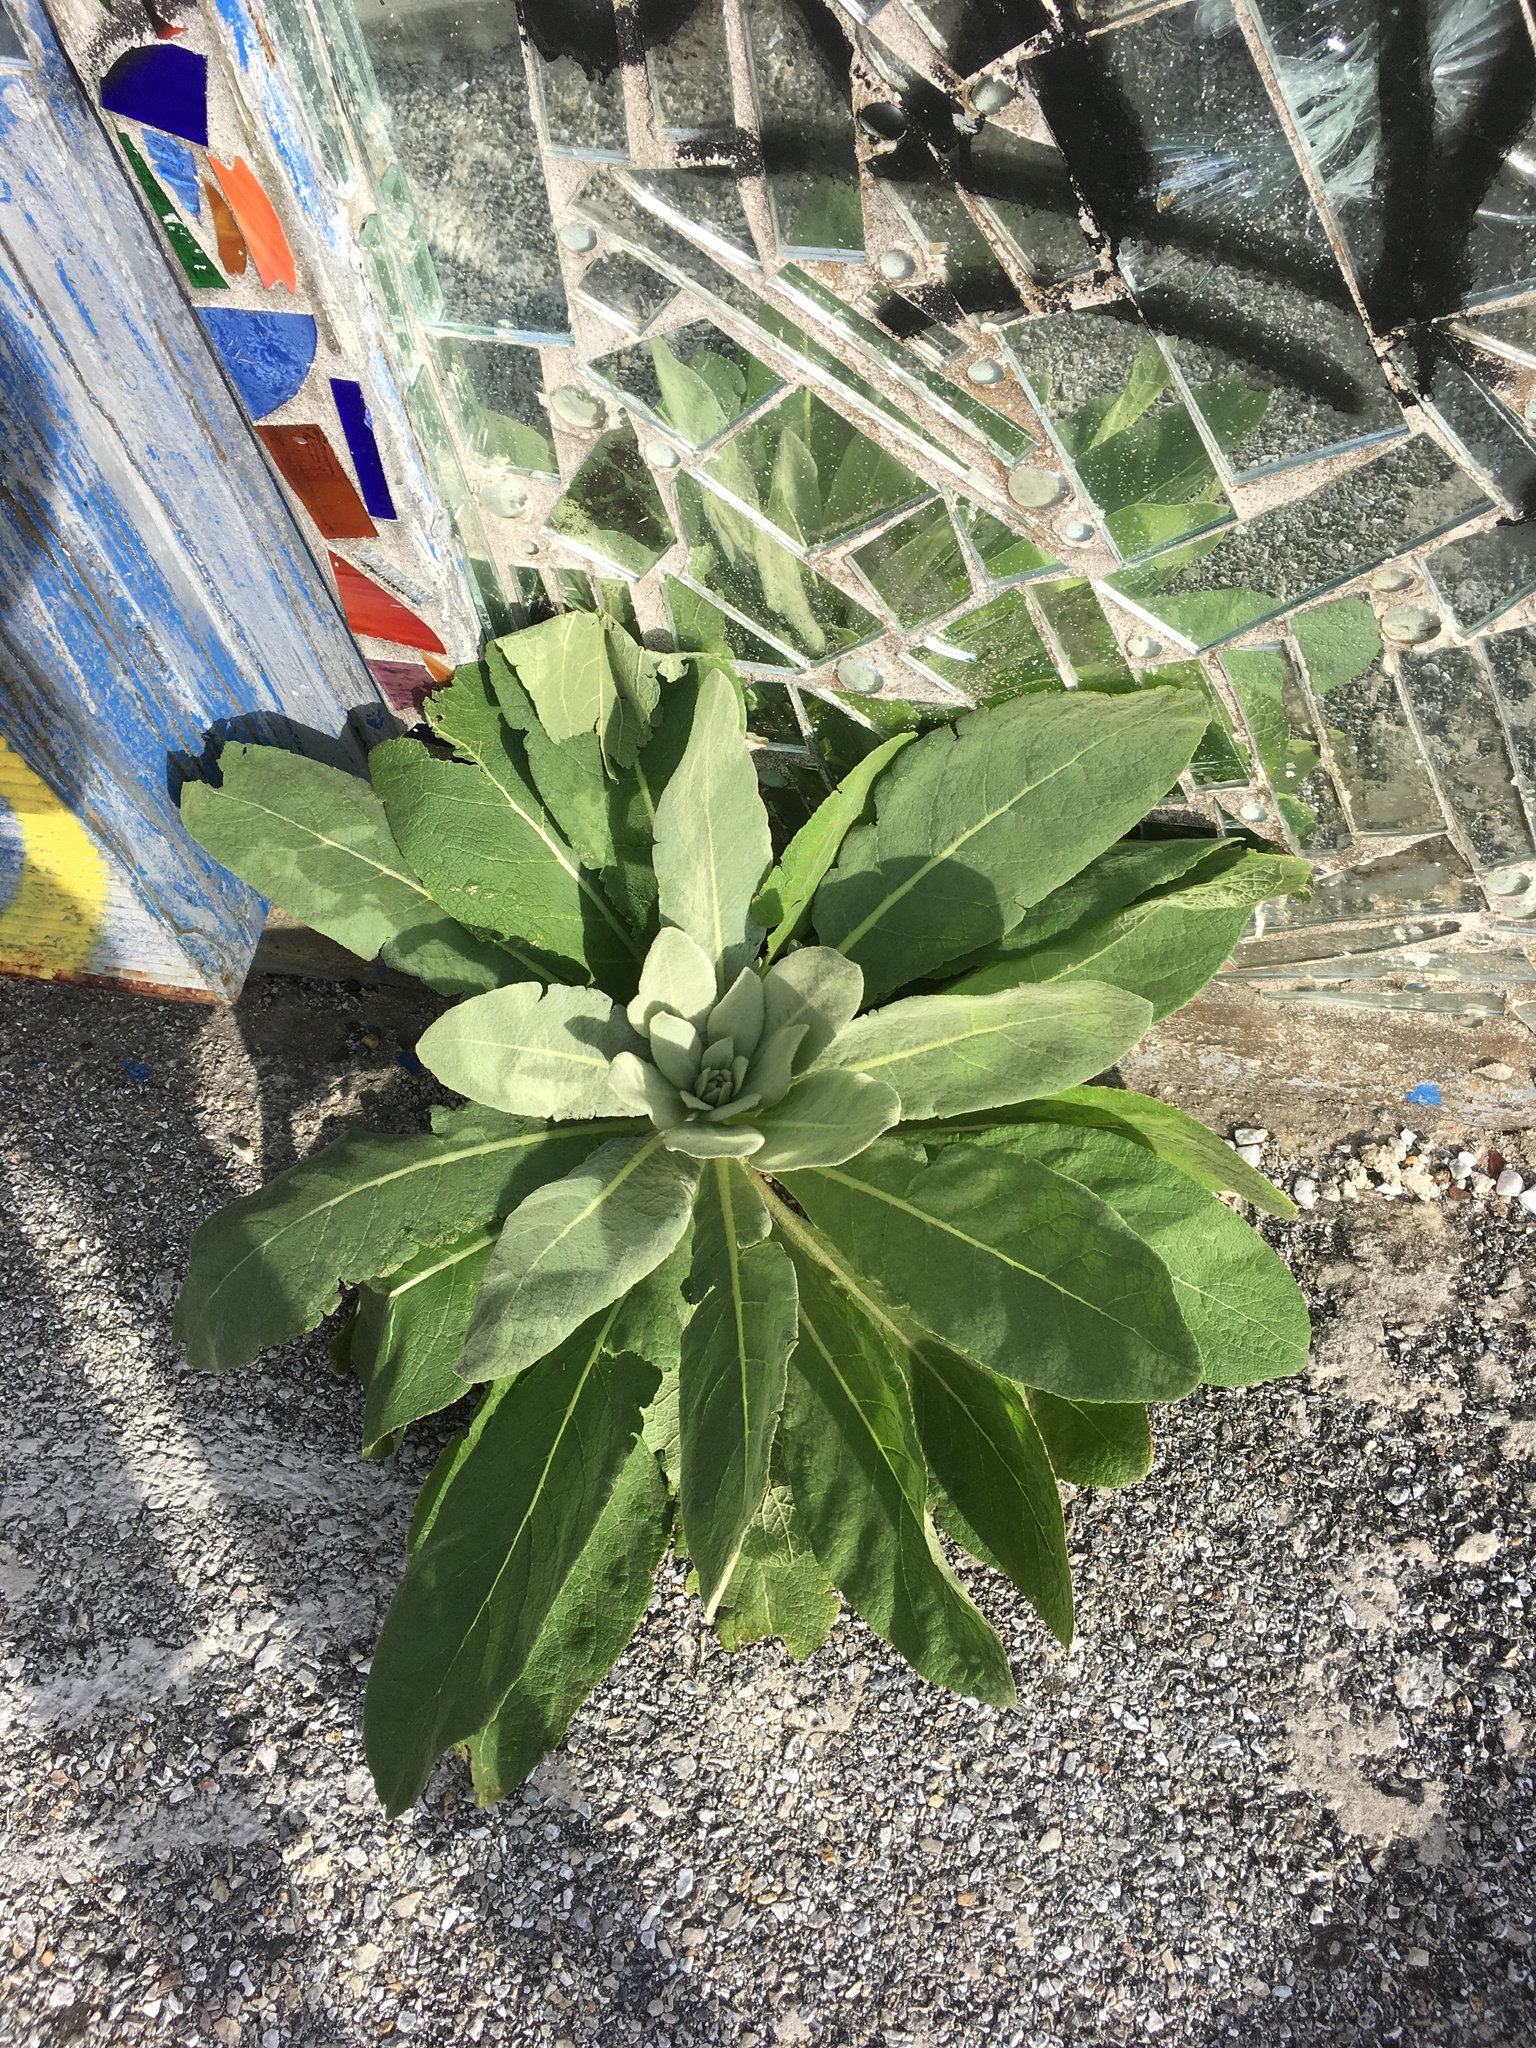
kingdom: Plantae
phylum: Tracheophyta
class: Magnoliopsida
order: Lamiales
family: Scrophulariaceae
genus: Verbascum
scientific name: Verbascum thapsus
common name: Common mullein
